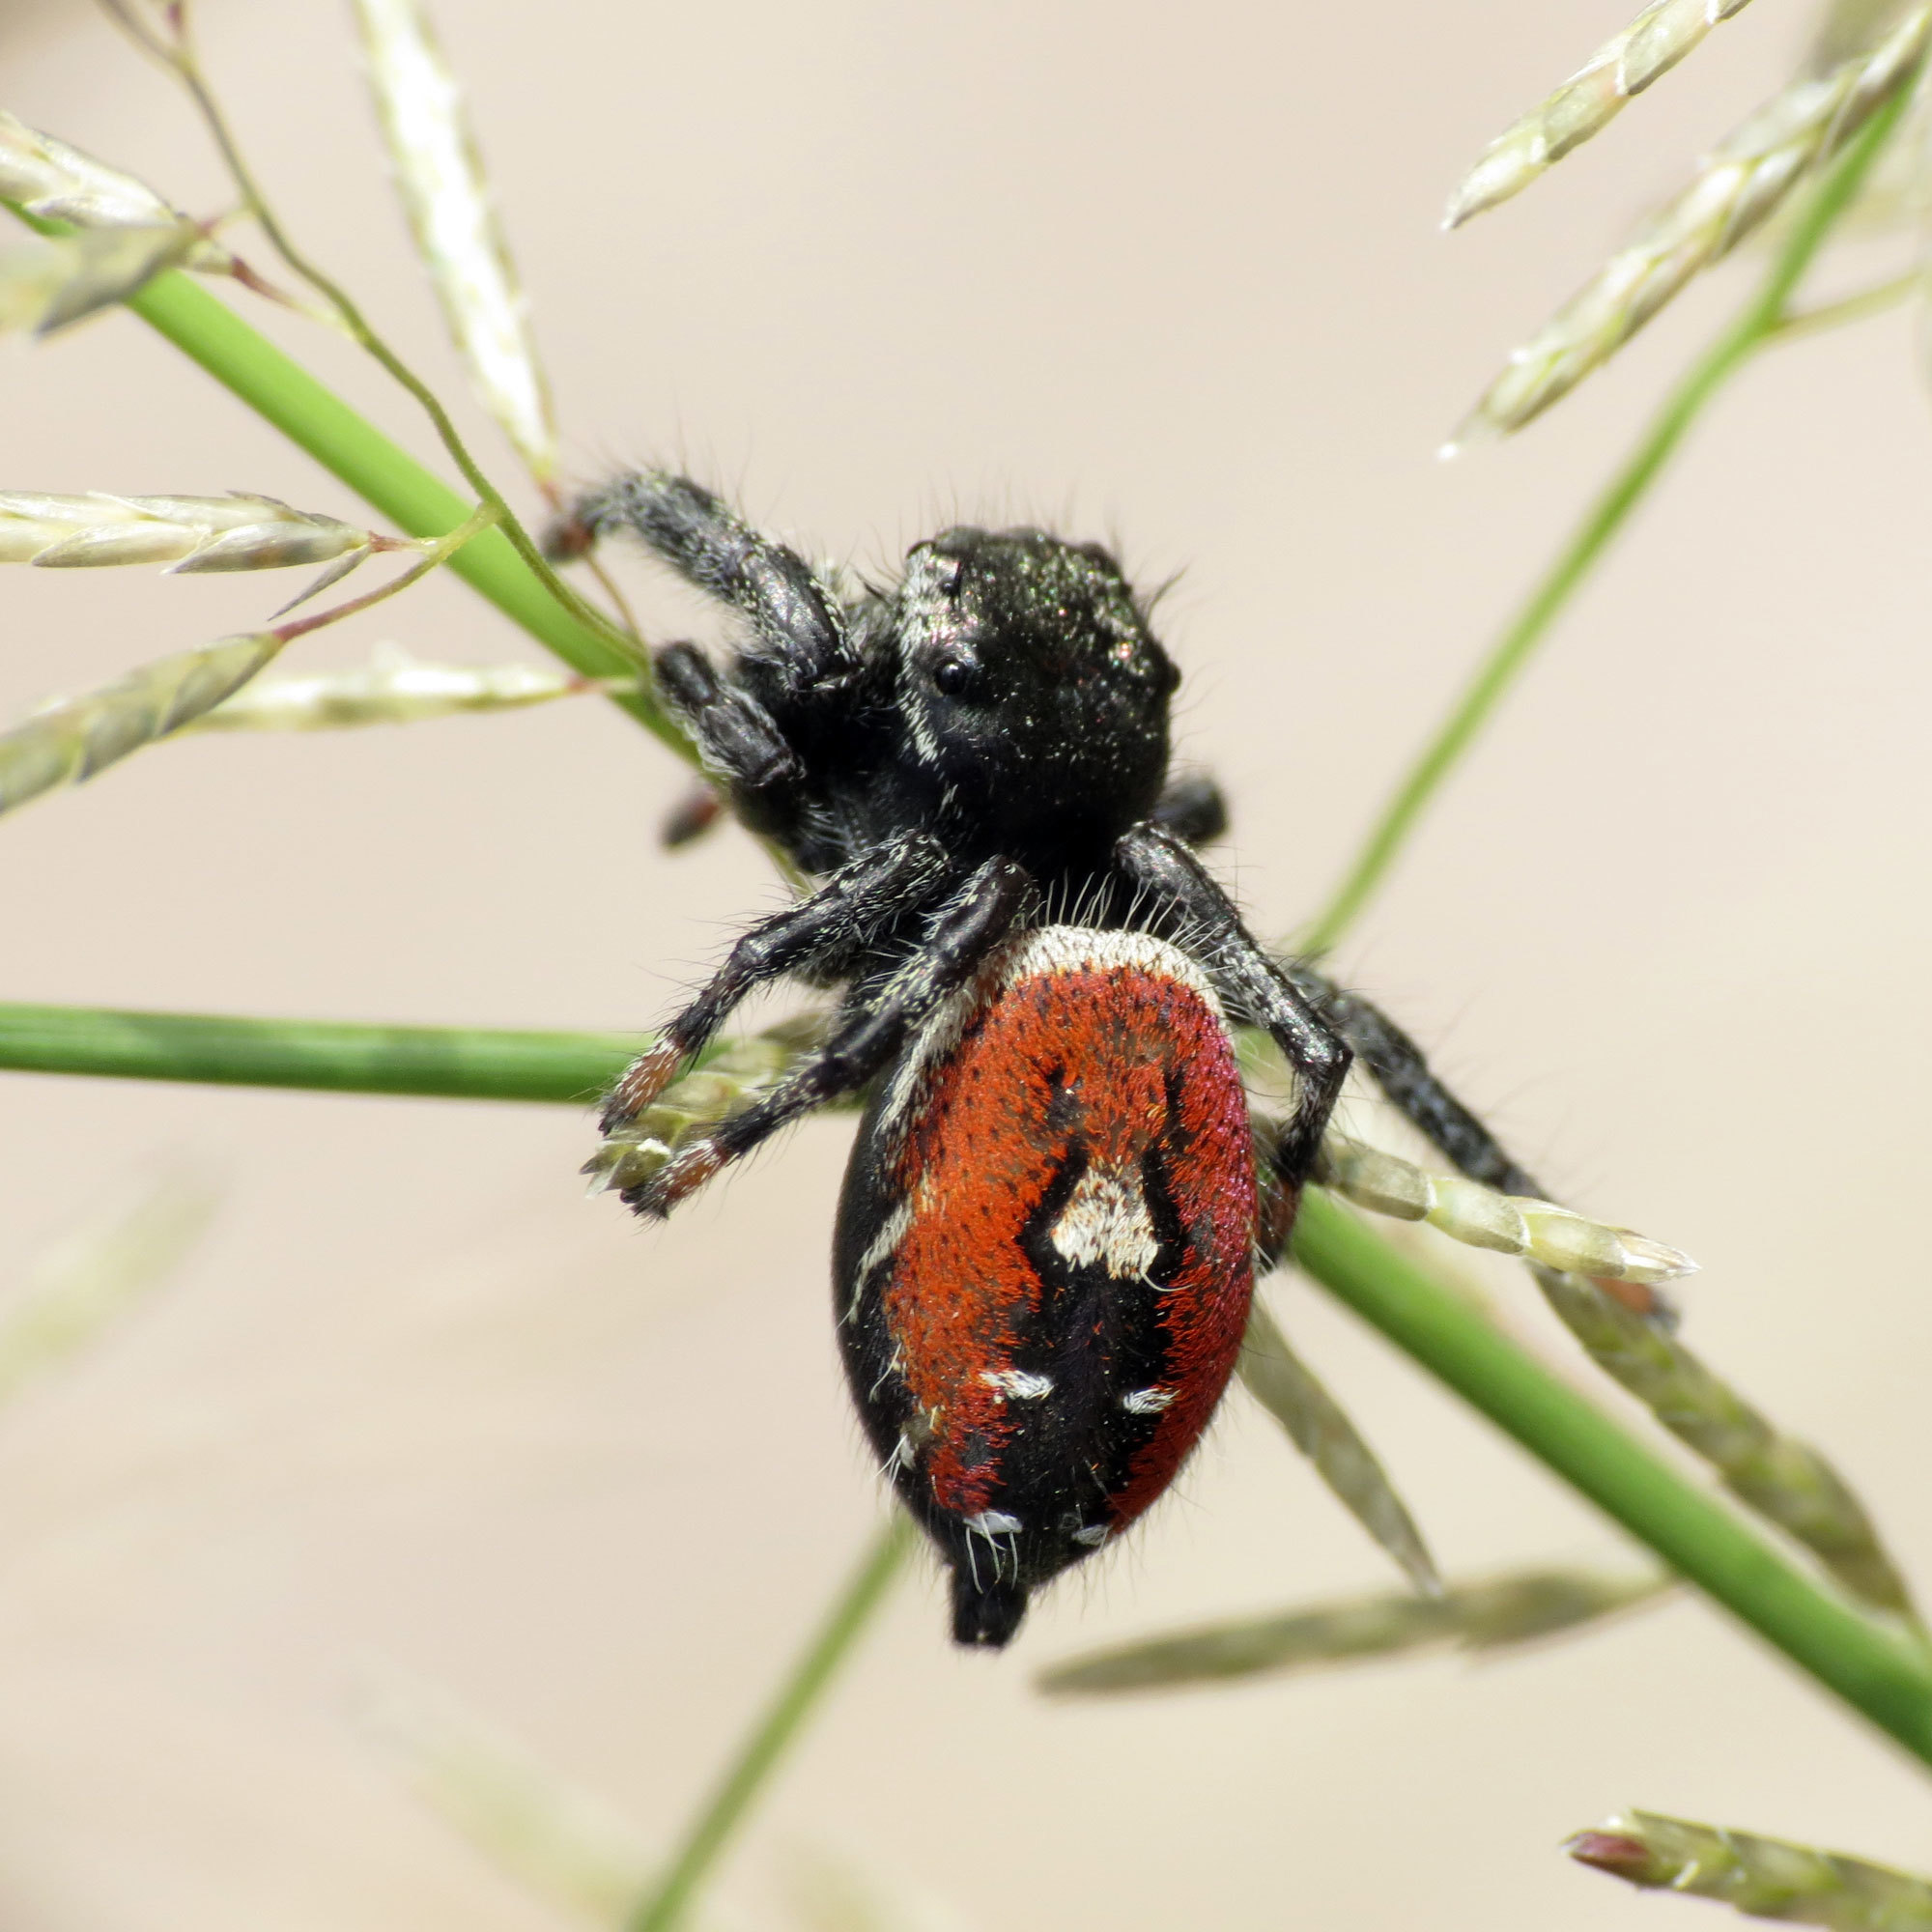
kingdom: Animalia
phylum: Arthropoda
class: Arachnida
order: Araneae
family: Salticidae
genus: Phidippus
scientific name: Phidippus carneus
